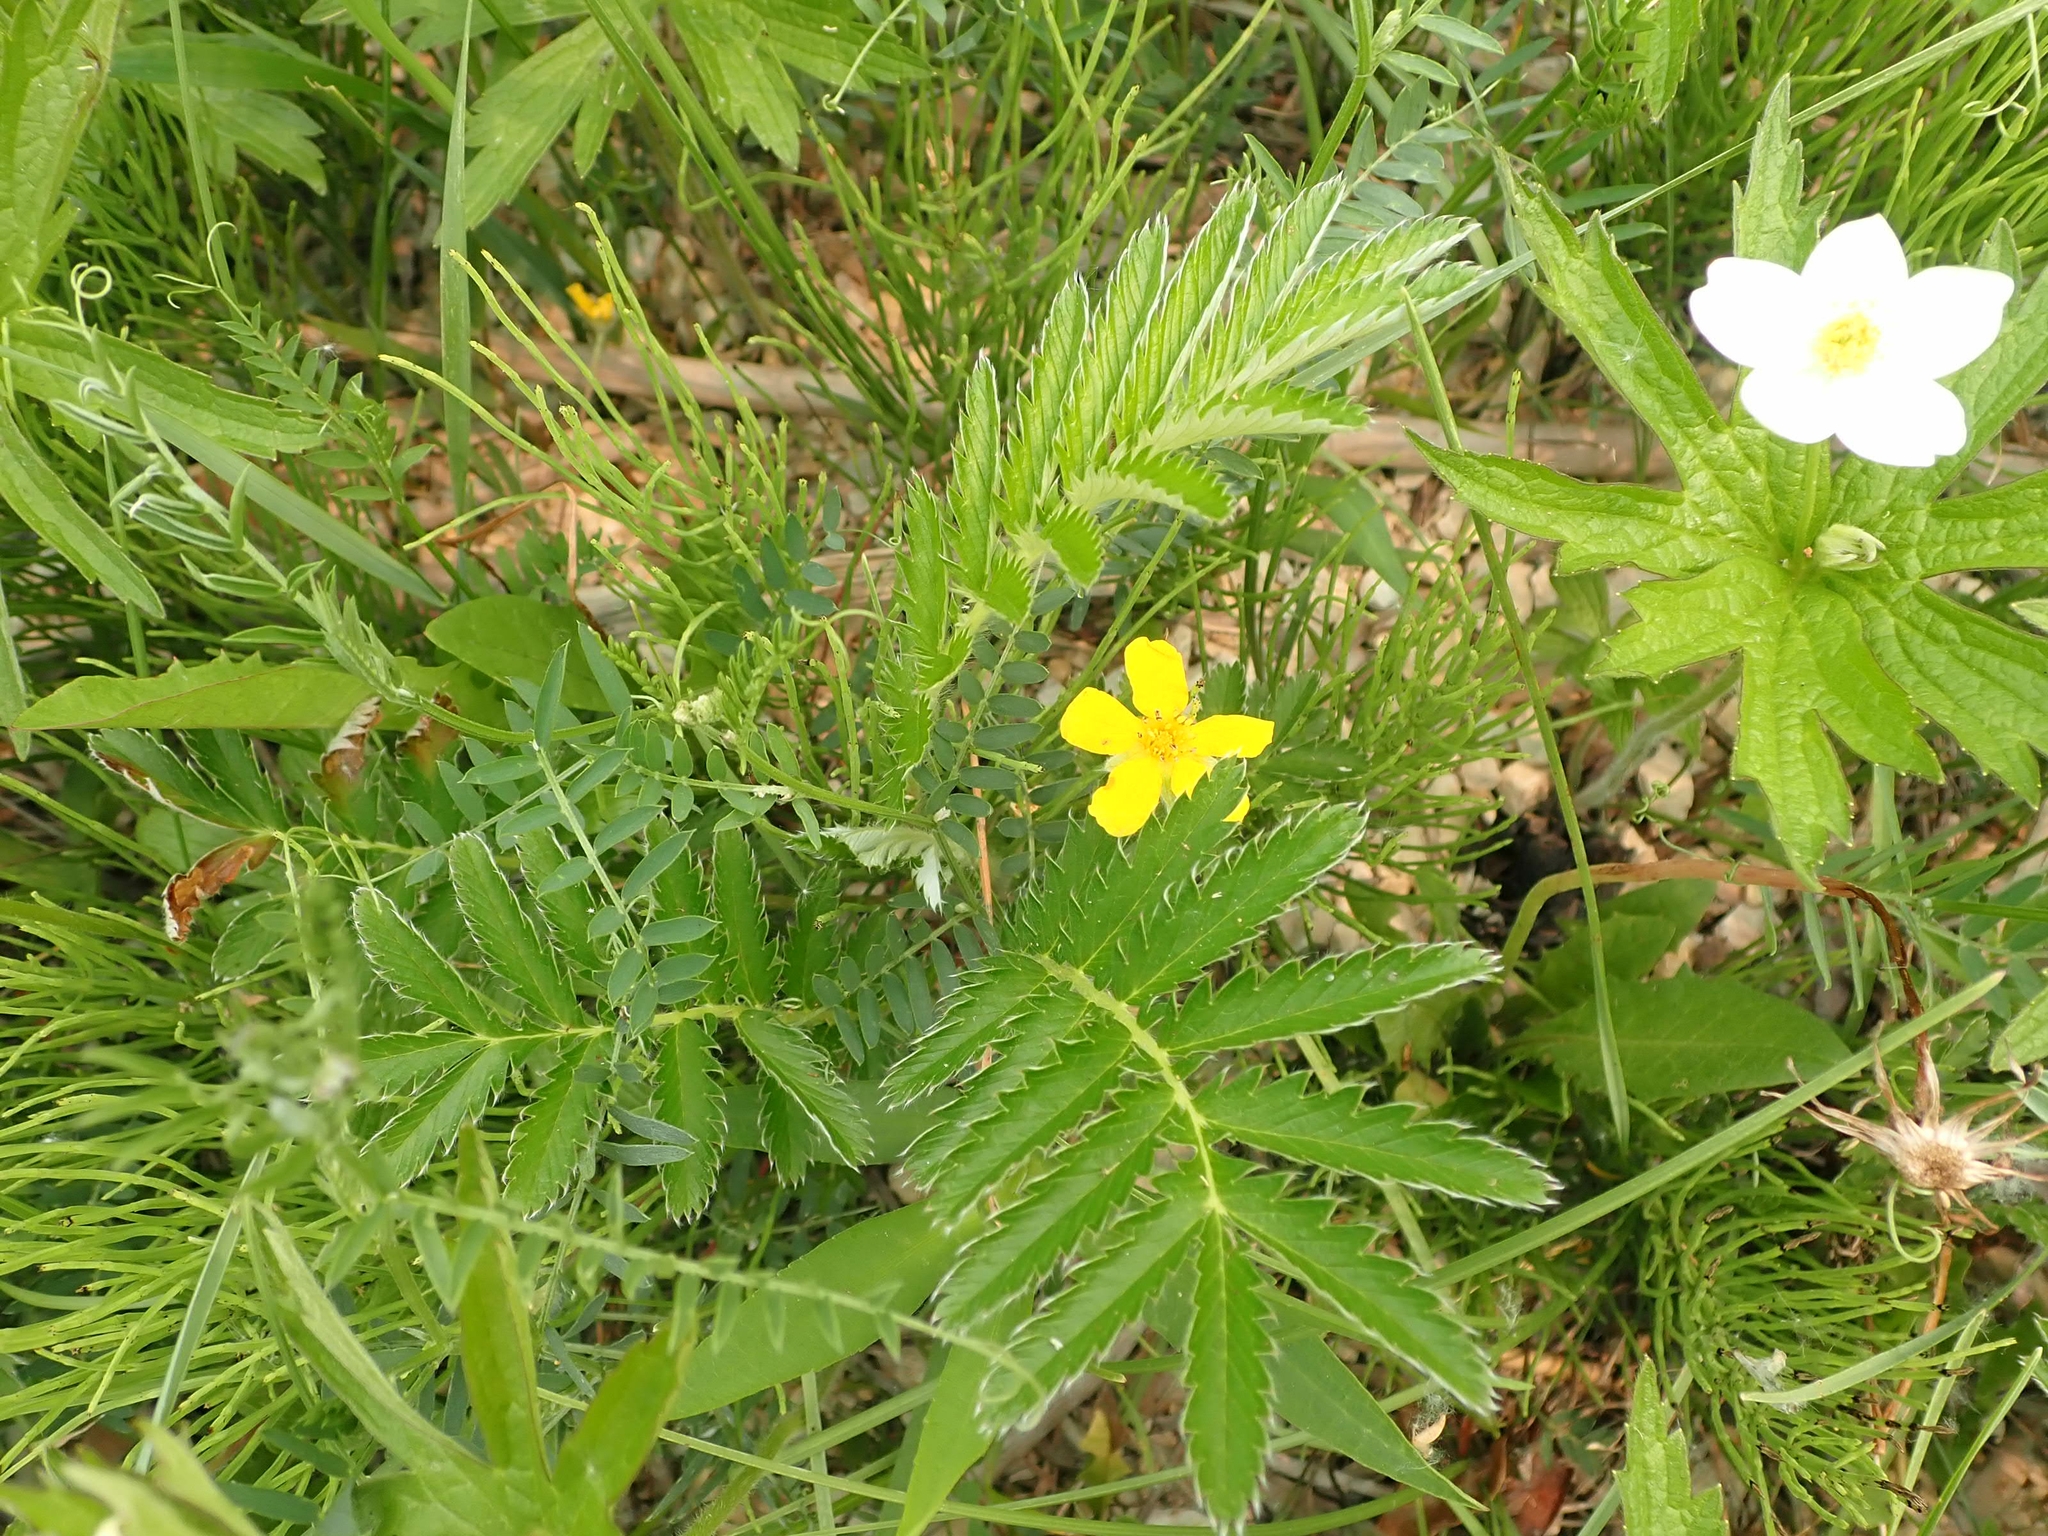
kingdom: Plantae
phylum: Tracheophyta
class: Magnoliopsida
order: Rosales
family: Rosaceae
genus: Argentina
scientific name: Argentina anserina
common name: Common silverweed
